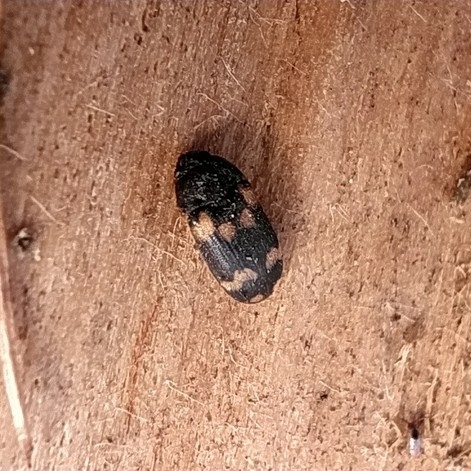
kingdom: Animalia
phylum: Arthropoda
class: Insecta
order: Coleoptera
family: Mycetophagidae
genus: Mycetophagus
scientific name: Mycetophagus decempunctatus
